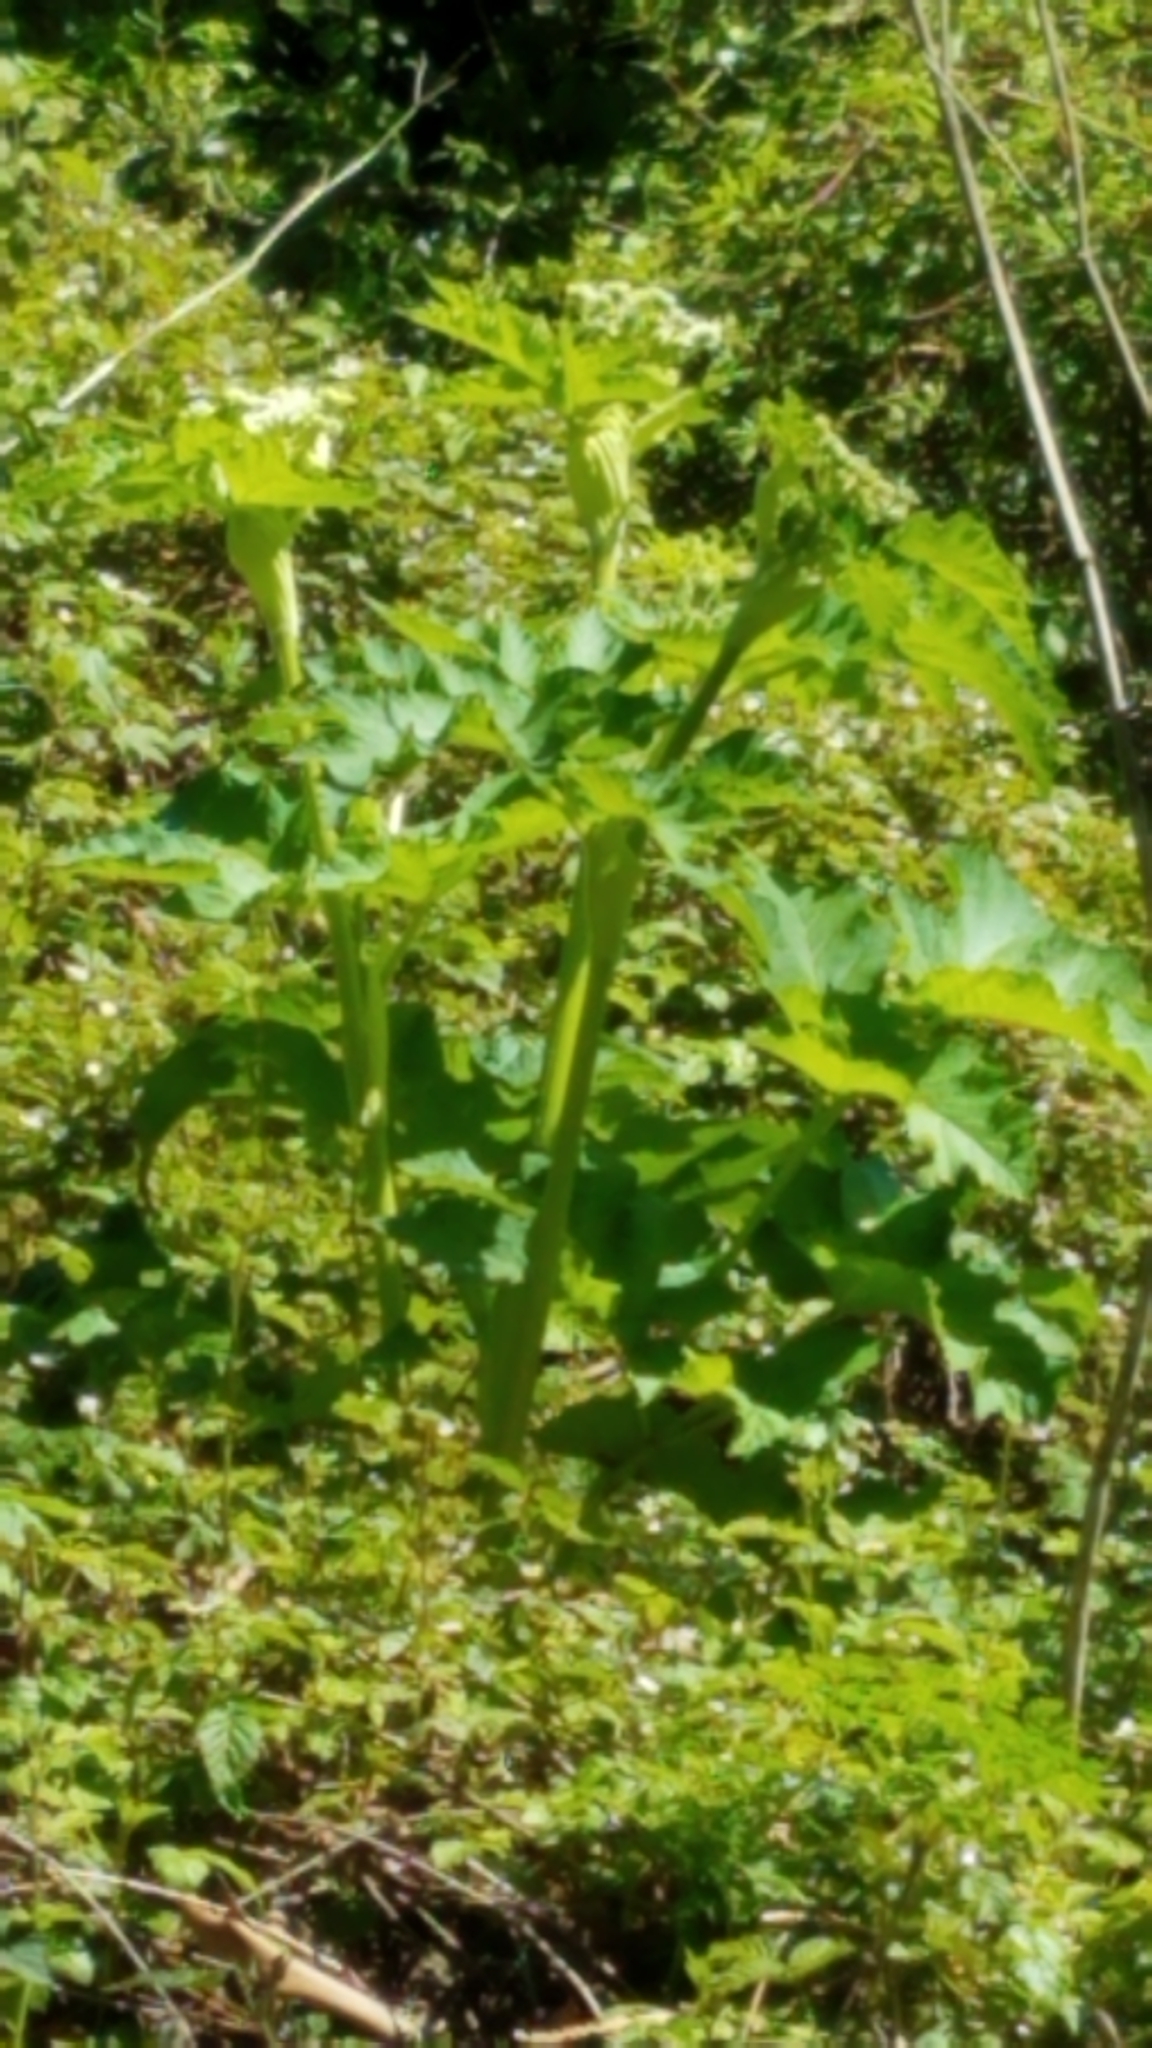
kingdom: Plantae
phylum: Tracheophyta
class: Magnoliopsida
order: Apiales
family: Apiaceae
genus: Heracleum
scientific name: Heracleum maximum
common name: American cow parsnip
